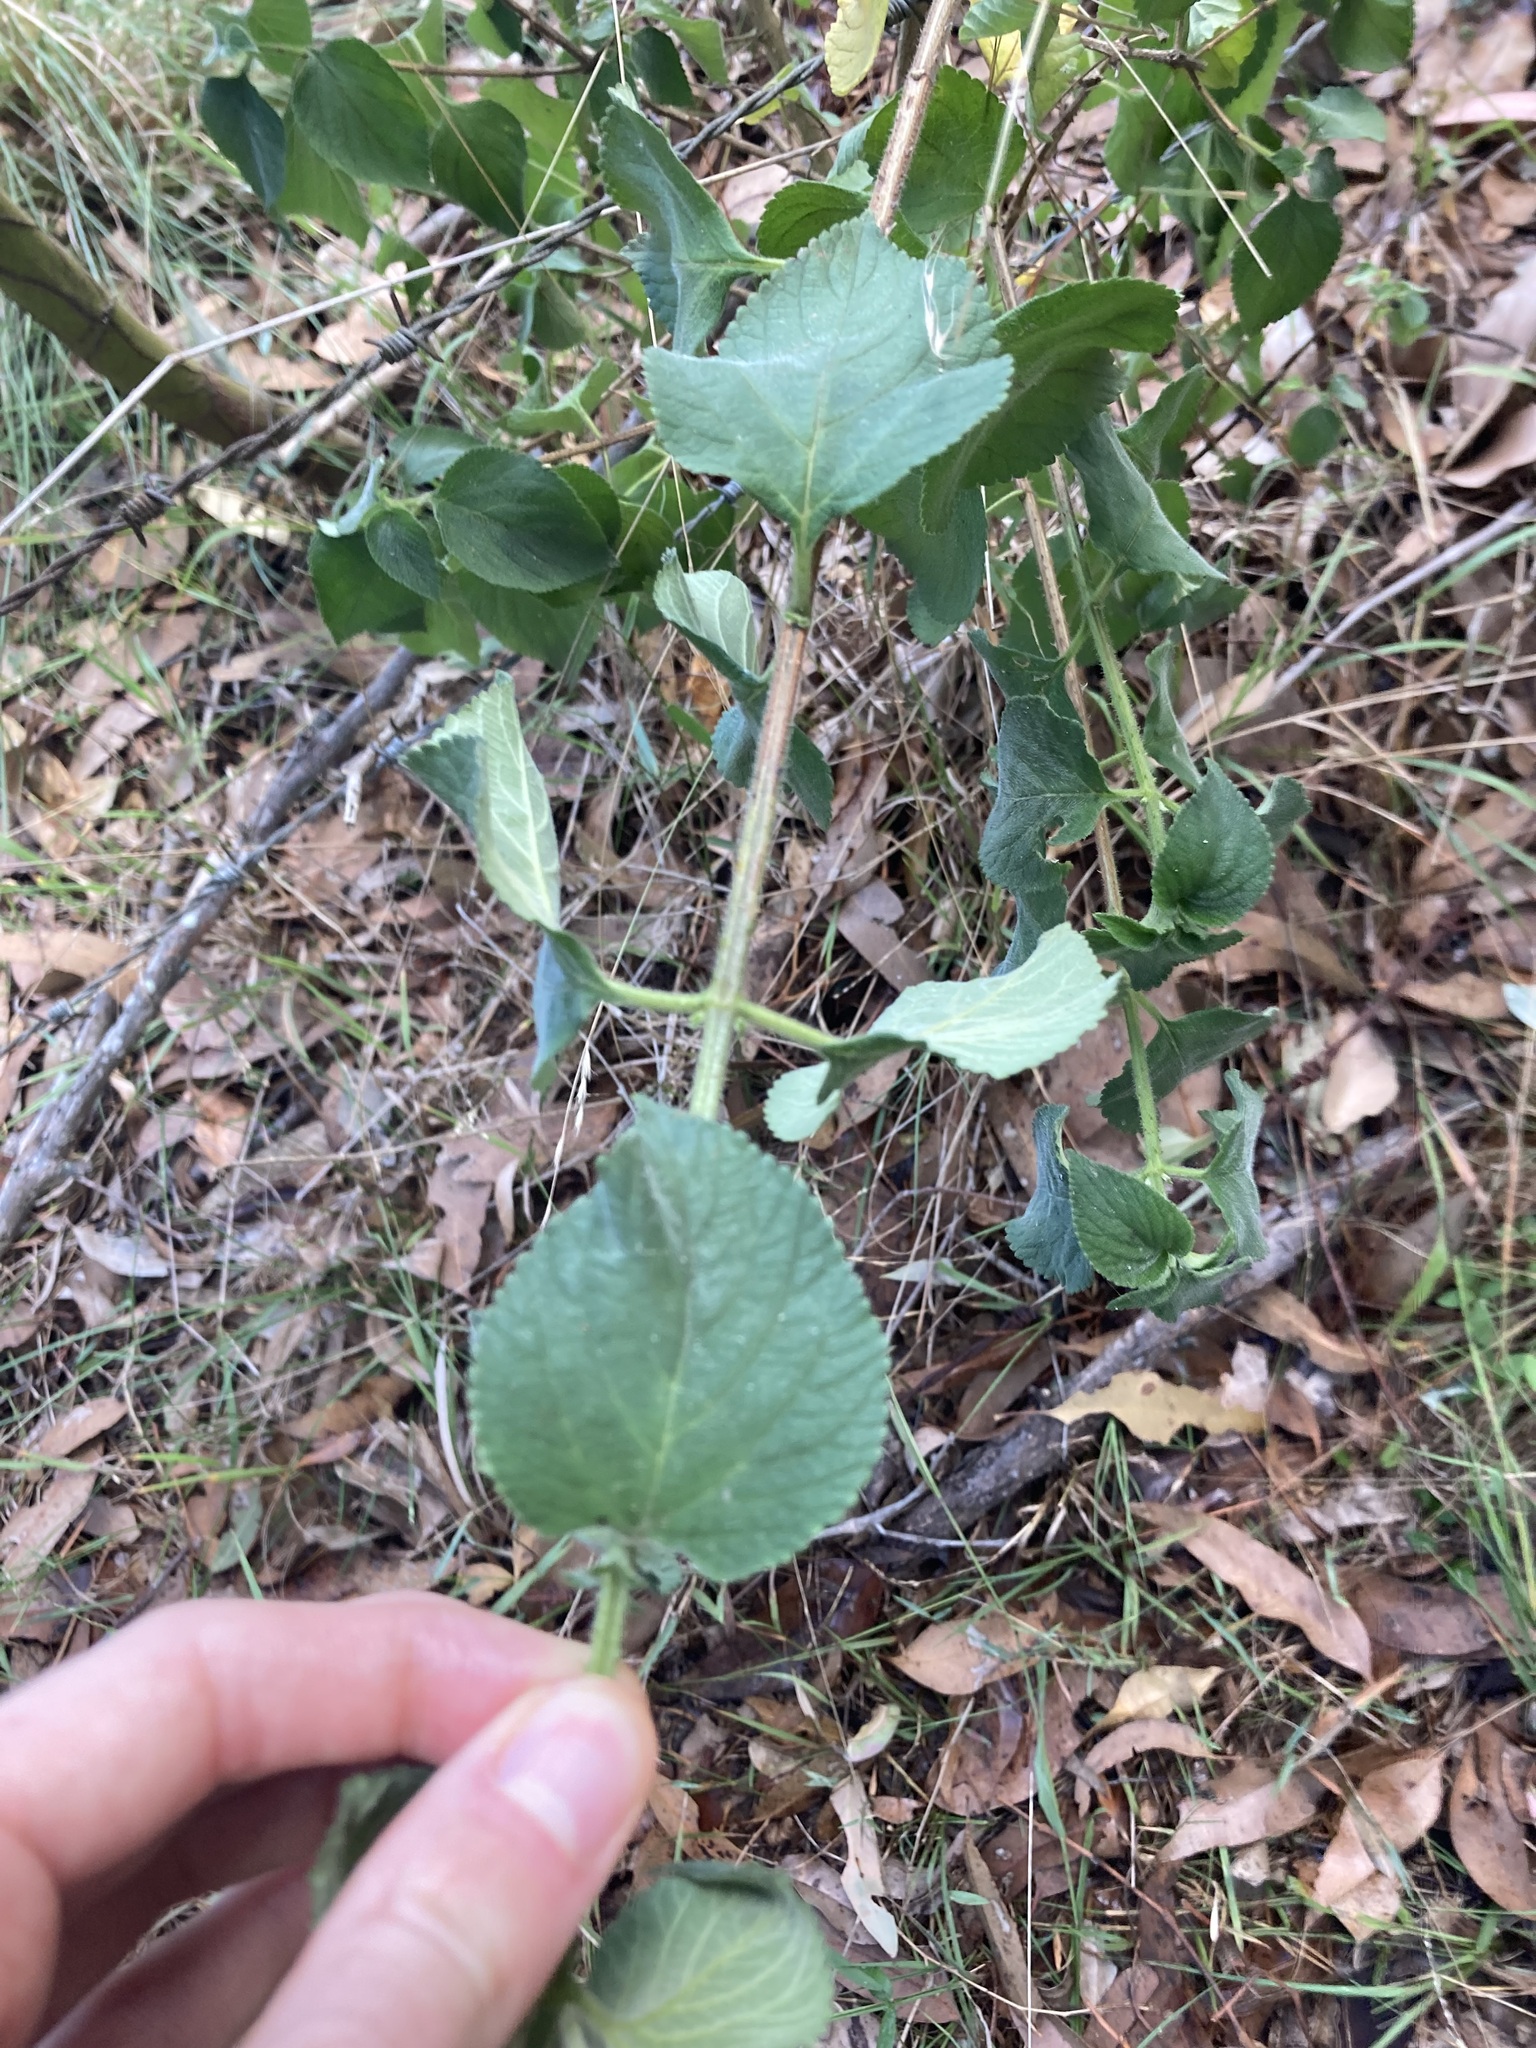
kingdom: Plantae
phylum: Tracheophyta
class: Magnoliopsida
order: Lamiales
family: Verbenaceae
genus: Lantana
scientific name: Lantana camara
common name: Lantana
